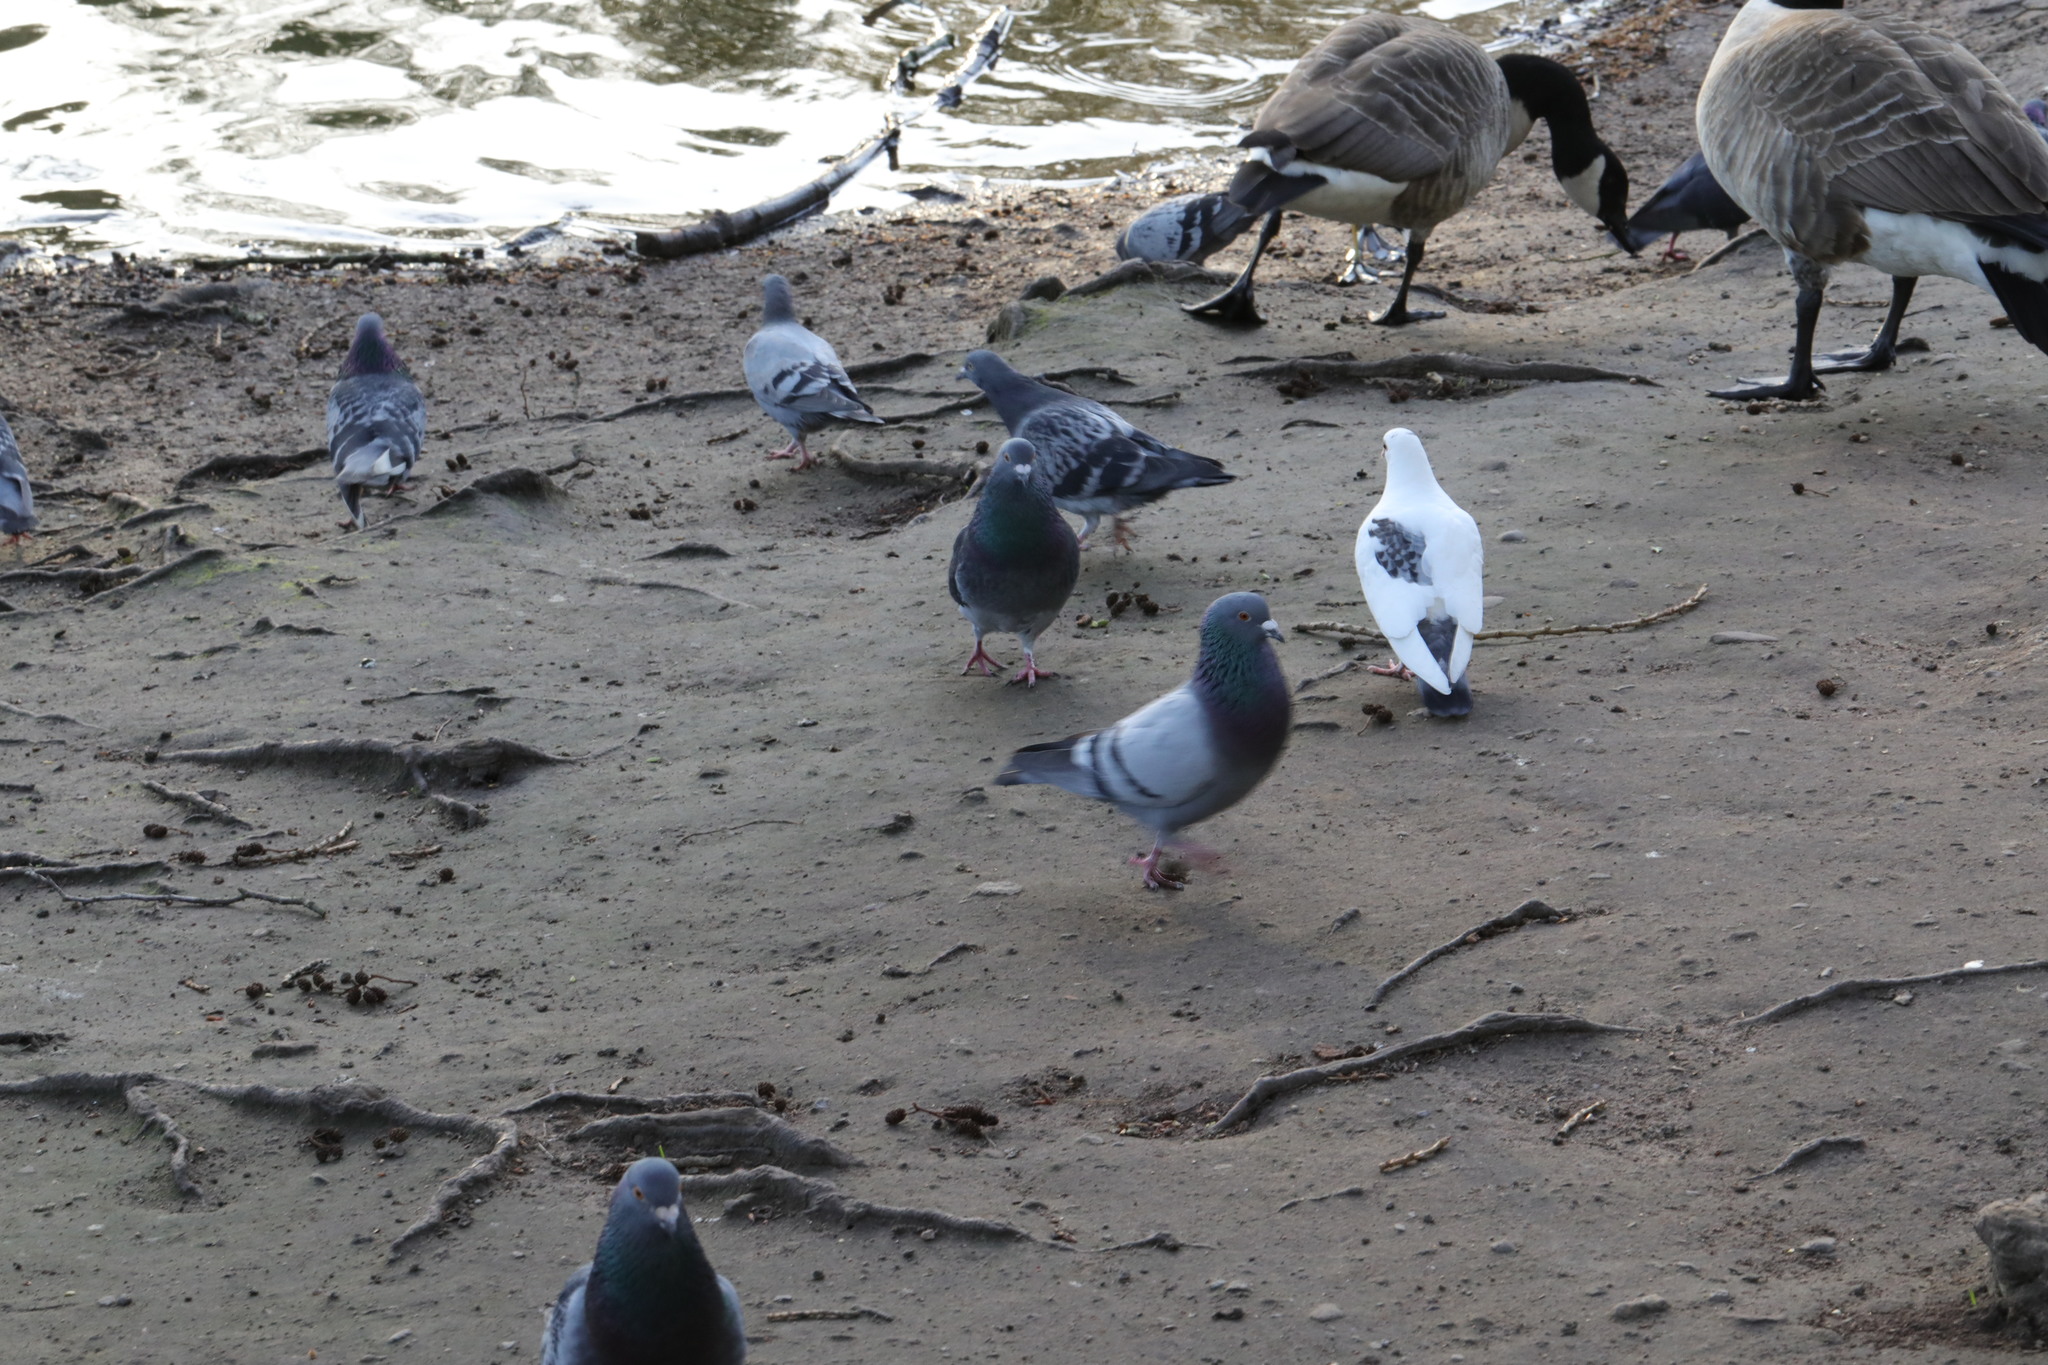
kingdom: Animalia
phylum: Chordata
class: Aves
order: Columbiformes
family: Columbidae
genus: Columba
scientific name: Columba livia
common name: Rock pigeon
